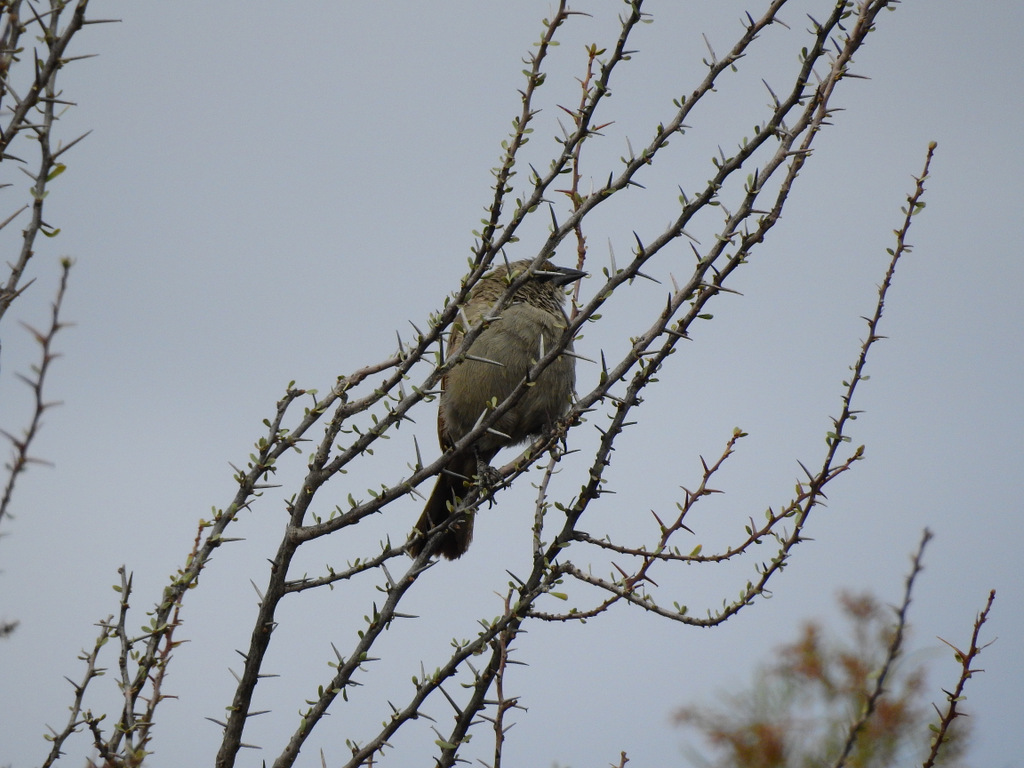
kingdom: Animalia
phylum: Chordata
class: Aves
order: Passeriformes
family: Icteridae
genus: Agelaioides
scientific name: Agelaioides badius
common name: Baywing
